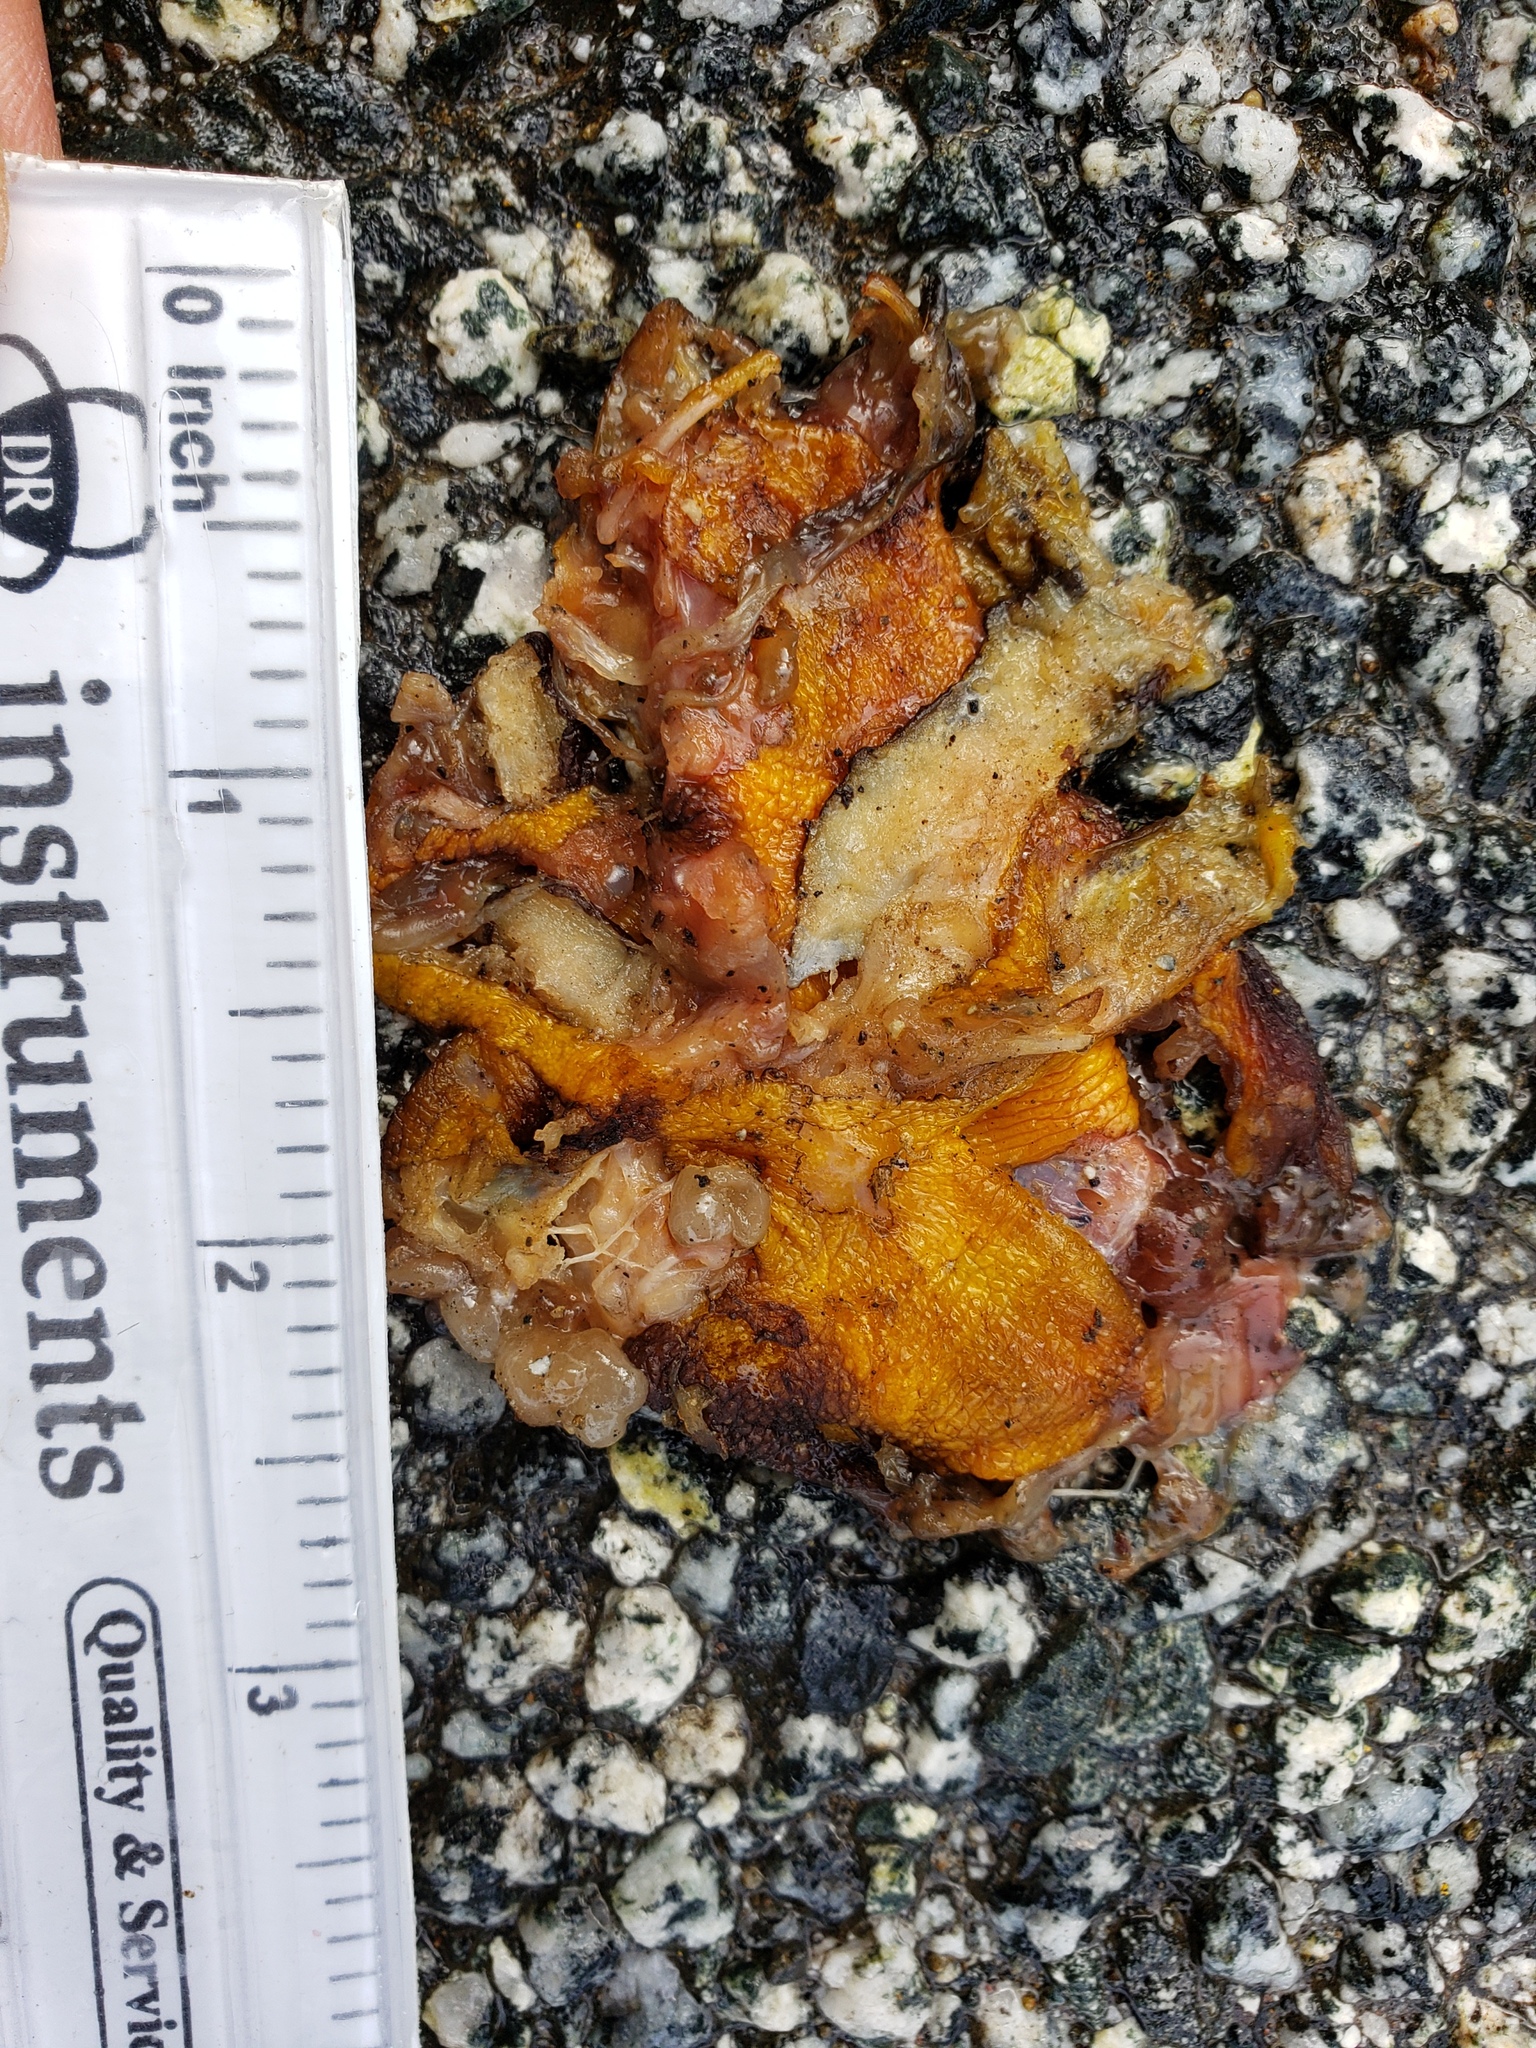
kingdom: Animalia
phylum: Chordata
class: Amphibia
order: Caudata
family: Salamandridae
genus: Taricha
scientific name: Taricha
